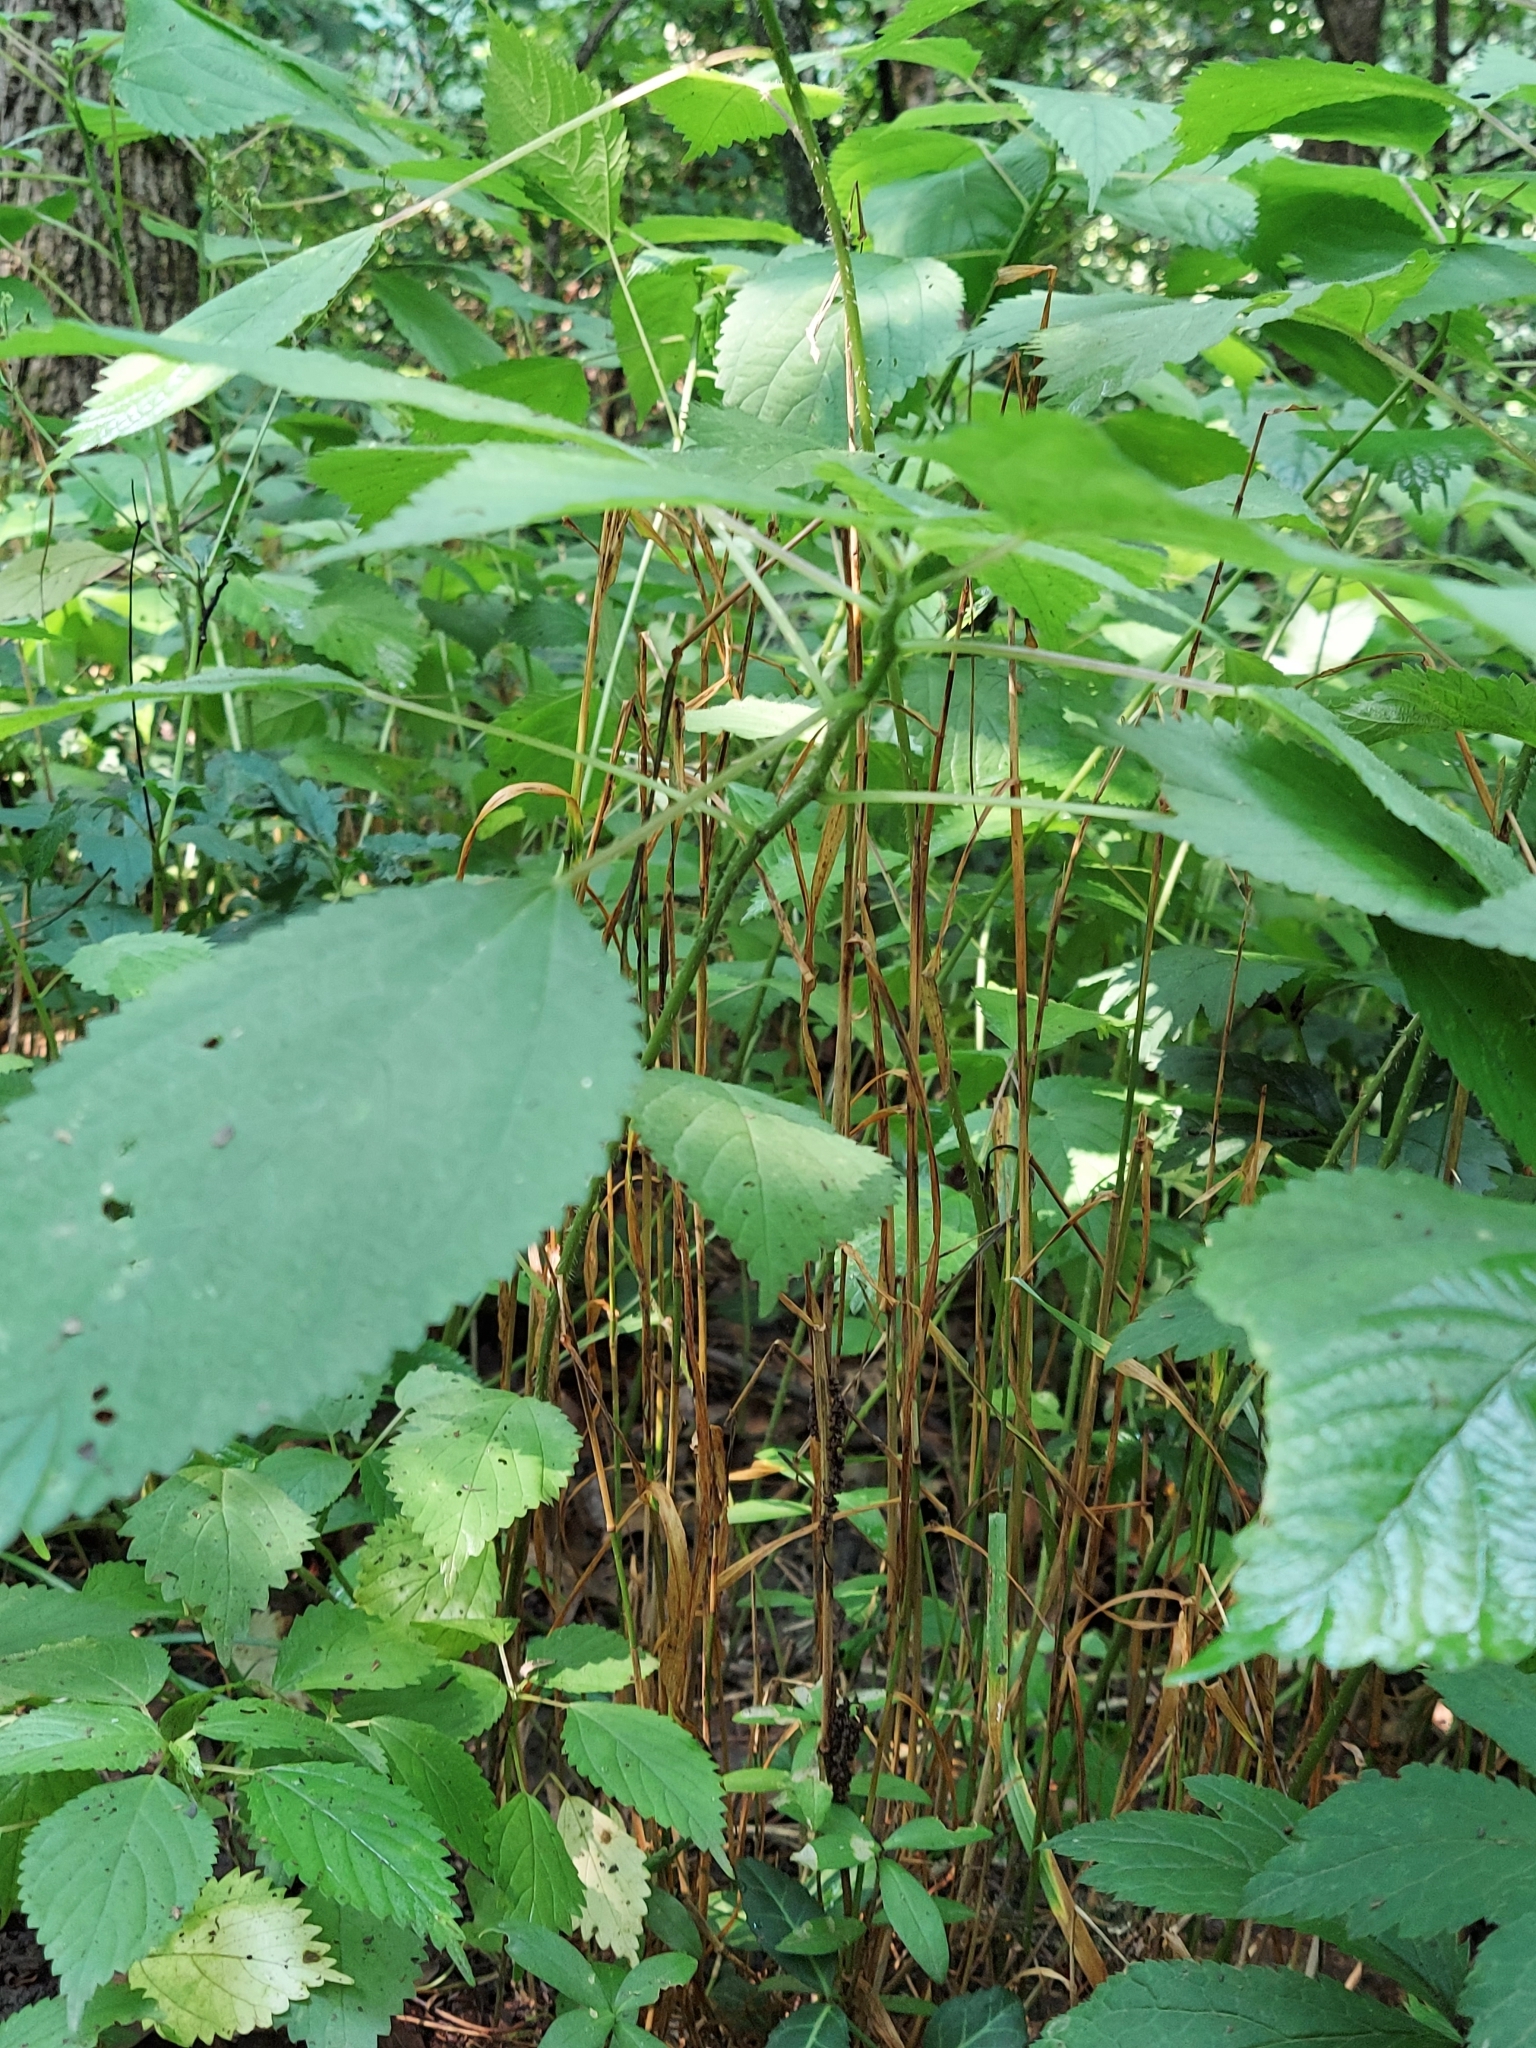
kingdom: Plantae
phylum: Tracheophyta
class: Magnoliopsida
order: Rosales
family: Urticaceae
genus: Laportea
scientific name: Laportea canadensis
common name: Canada nettle
